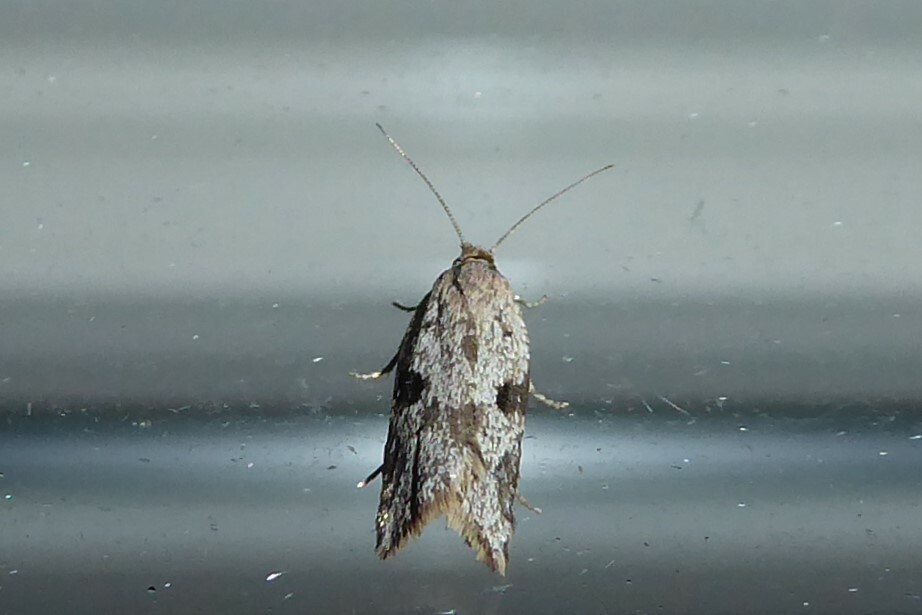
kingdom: Animalia
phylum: Arthropoda
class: Insecta
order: Lepidoptera
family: Tortricidae
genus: Capua
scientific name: Capua semiferana
